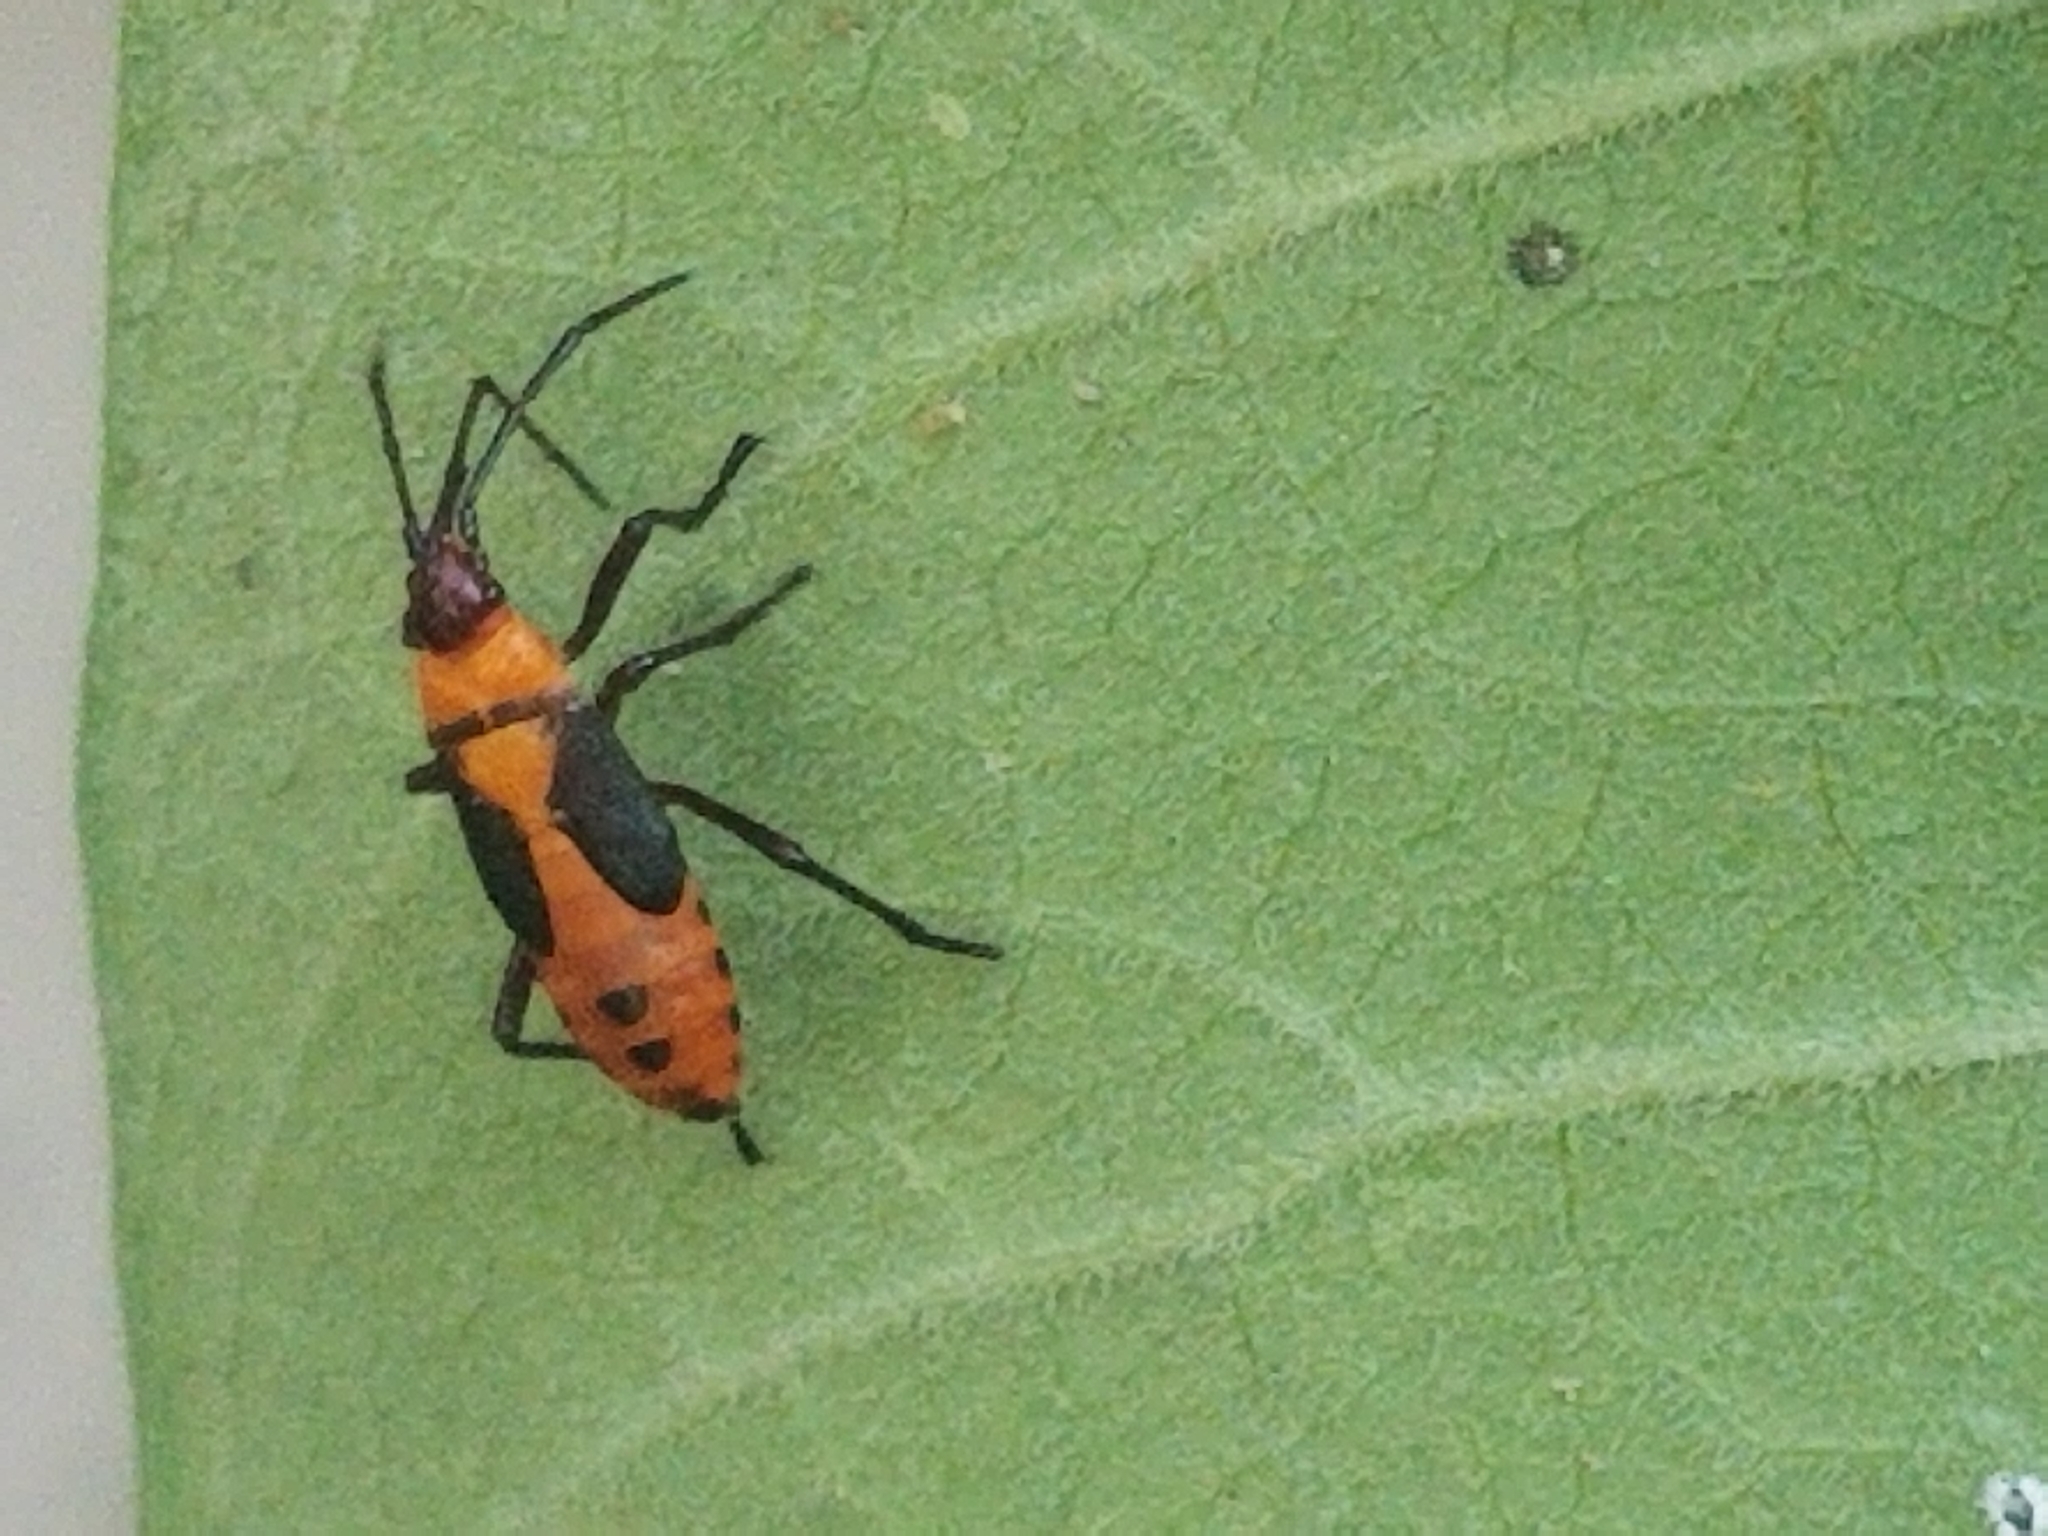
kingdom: Animalia
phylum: Arthropoda
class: Insecta
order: Hemiptera
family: Lygaeidae
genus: Oncopeltus
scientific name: Oncopeltus fasciatus
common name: Large milkweed bug
